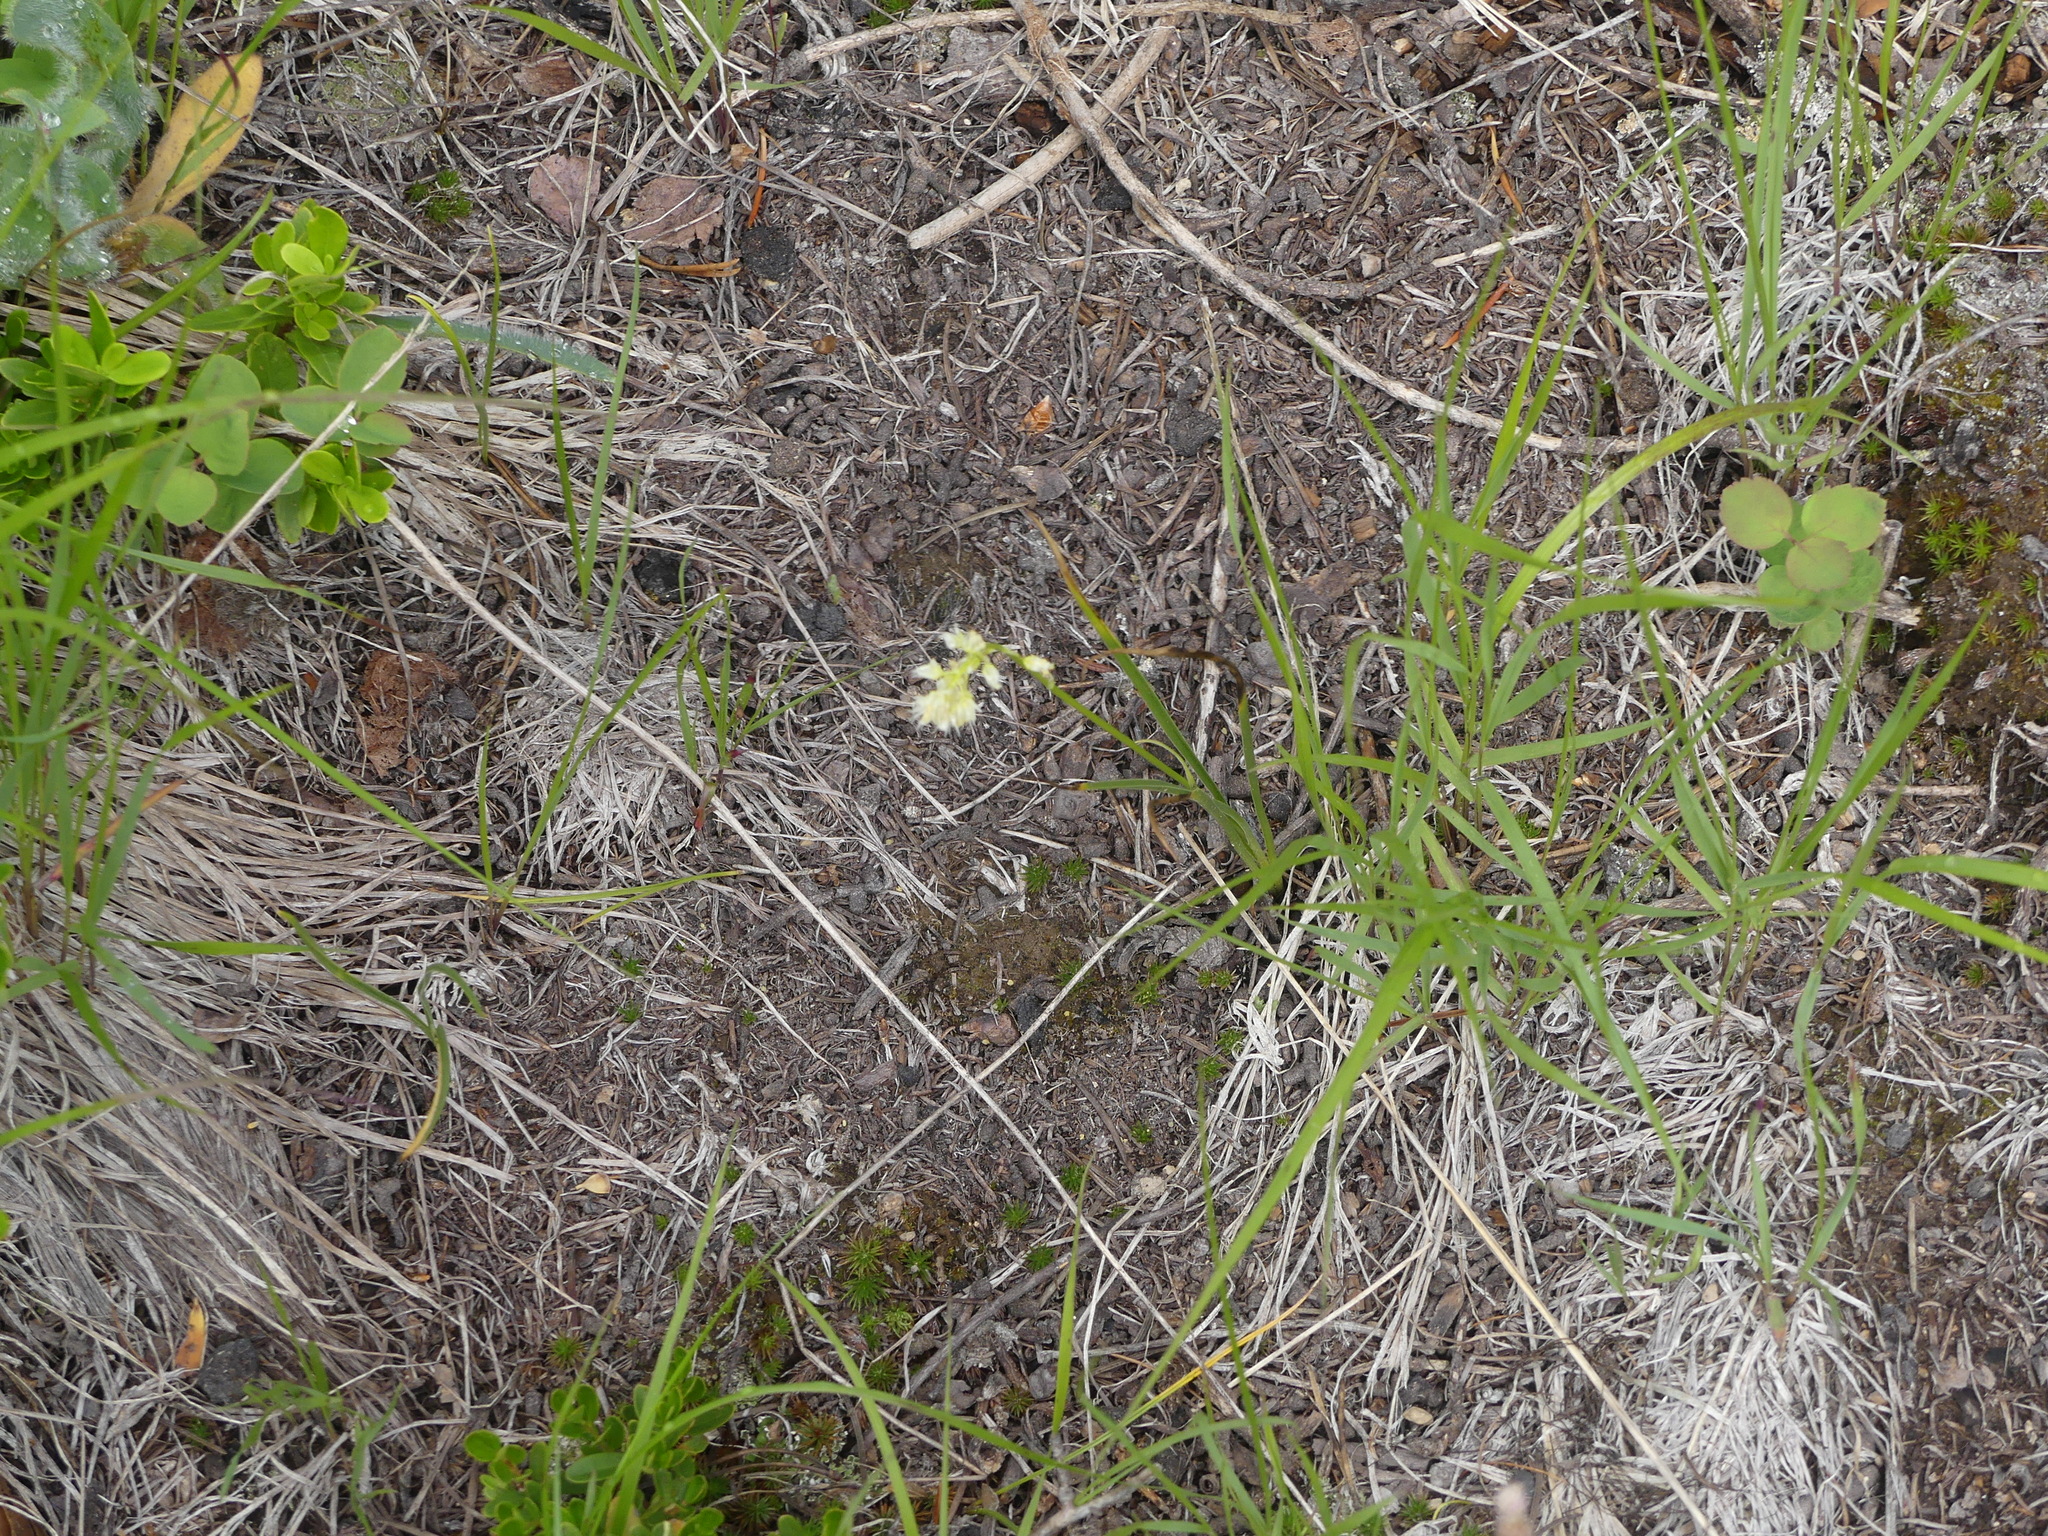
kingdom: Plantae
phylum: Tracheophyta
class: Liliopsida
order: Liliales
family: Melanthiaceae
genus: Toxicoscordion
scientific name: Toxicoscordion venenosum
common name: Meadow death camas
